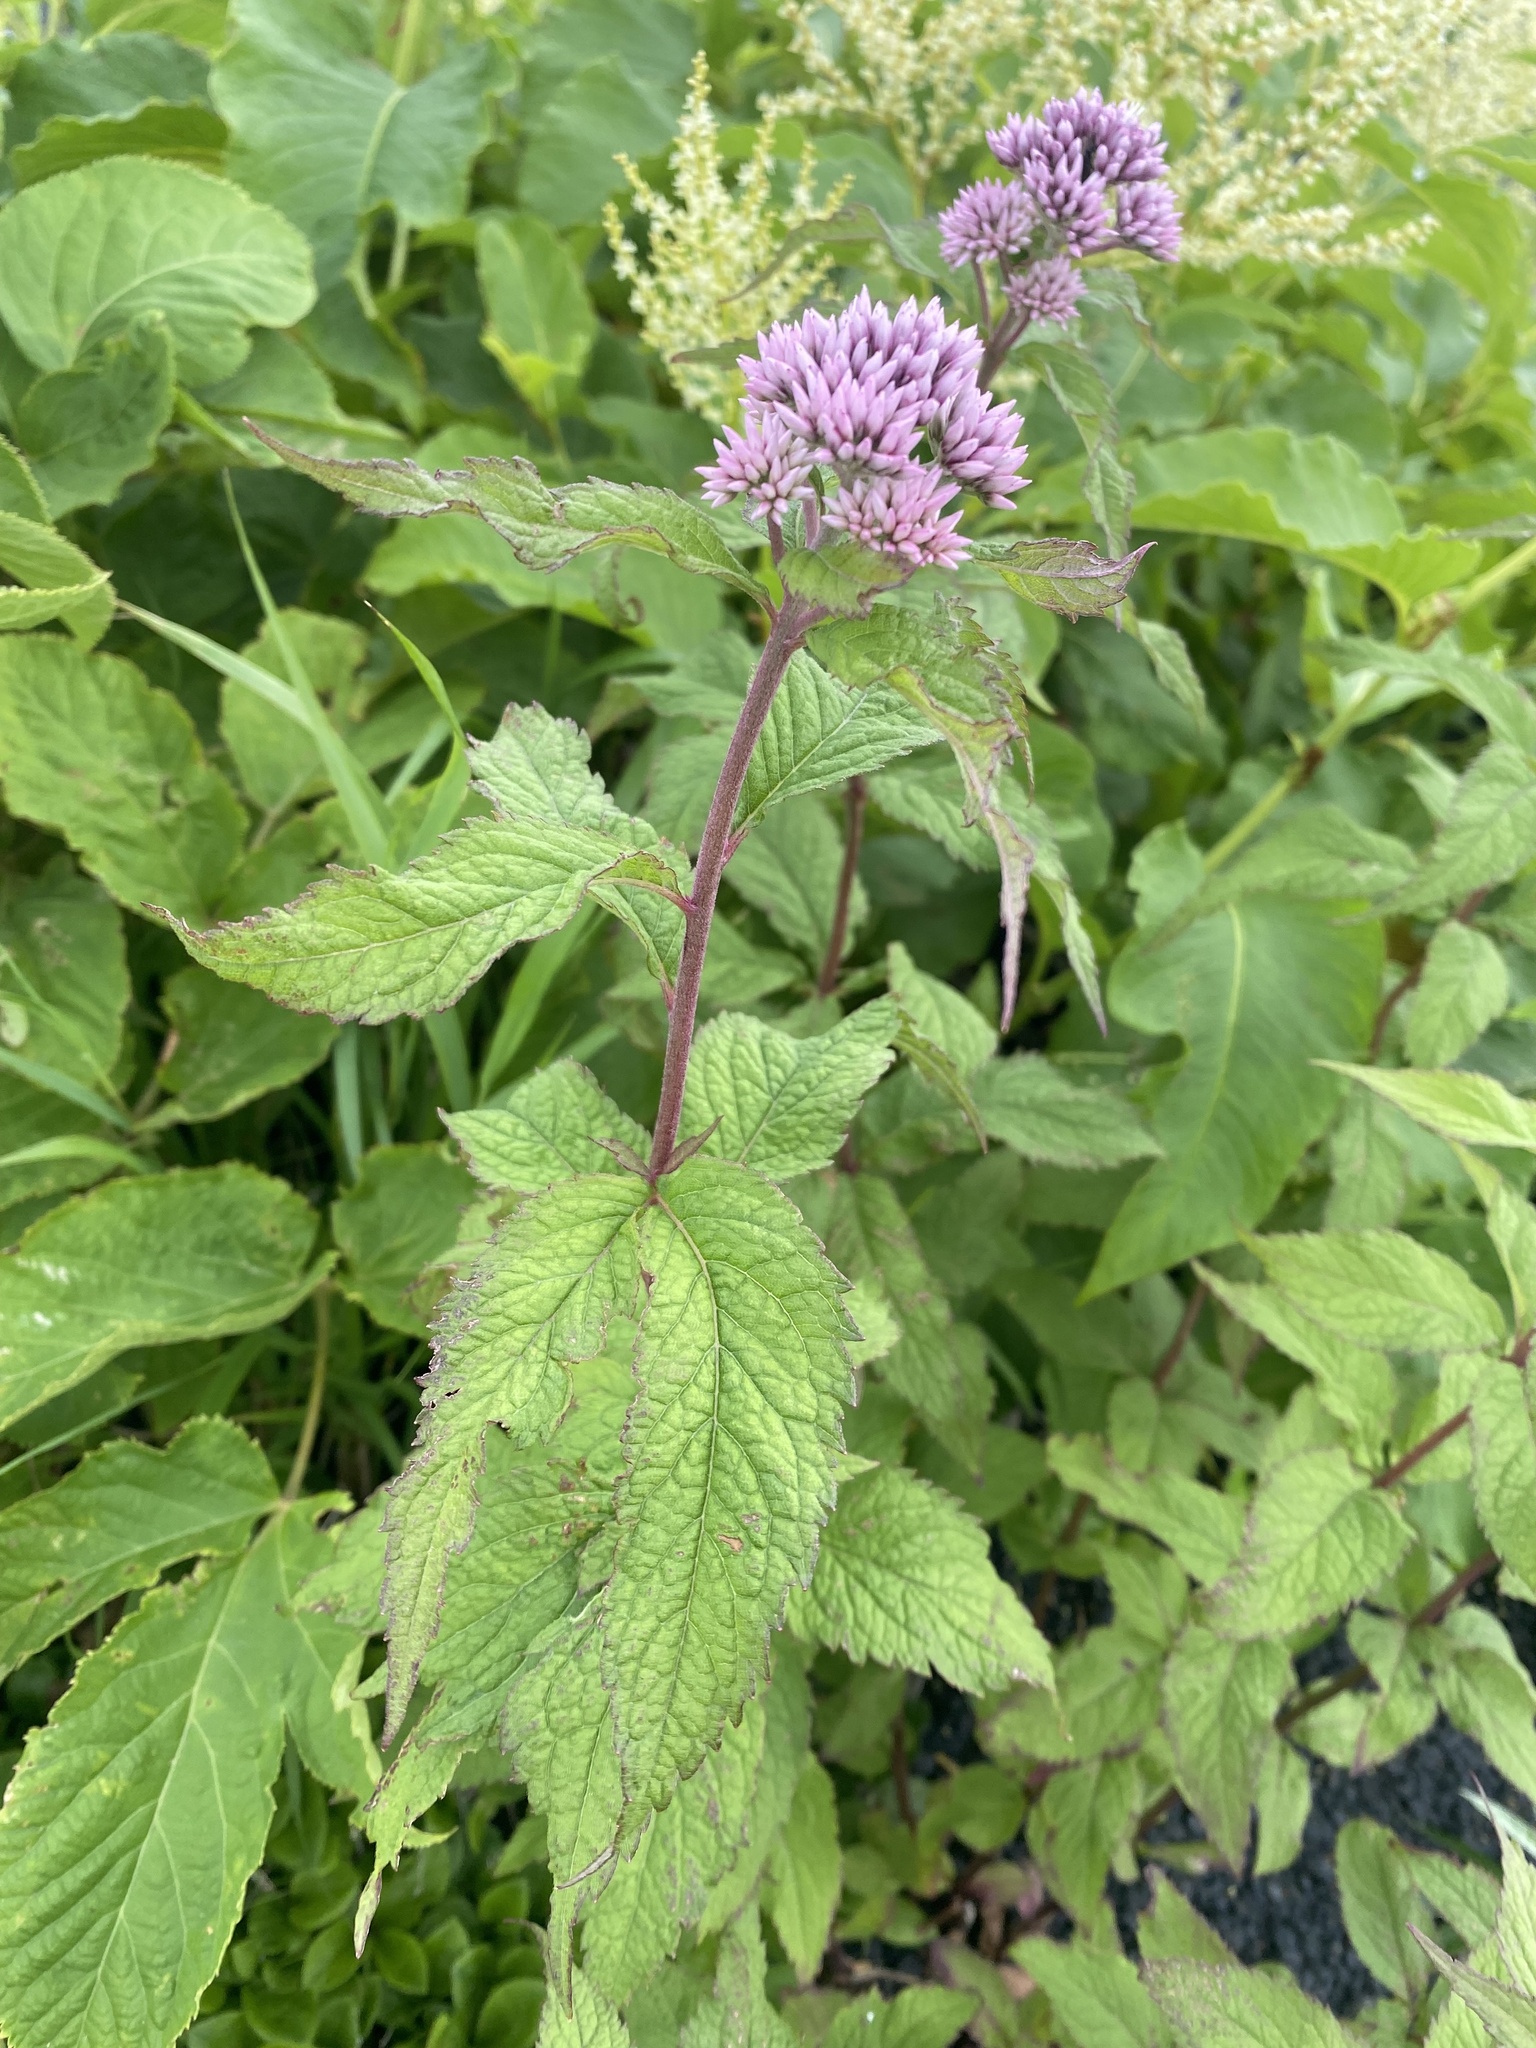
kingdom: Plantae
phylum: Tracheophyta
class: Magnoliopsida
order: Asterales
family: Asteraceae
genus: Eupatorium
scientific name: Eupatorium glehnii
